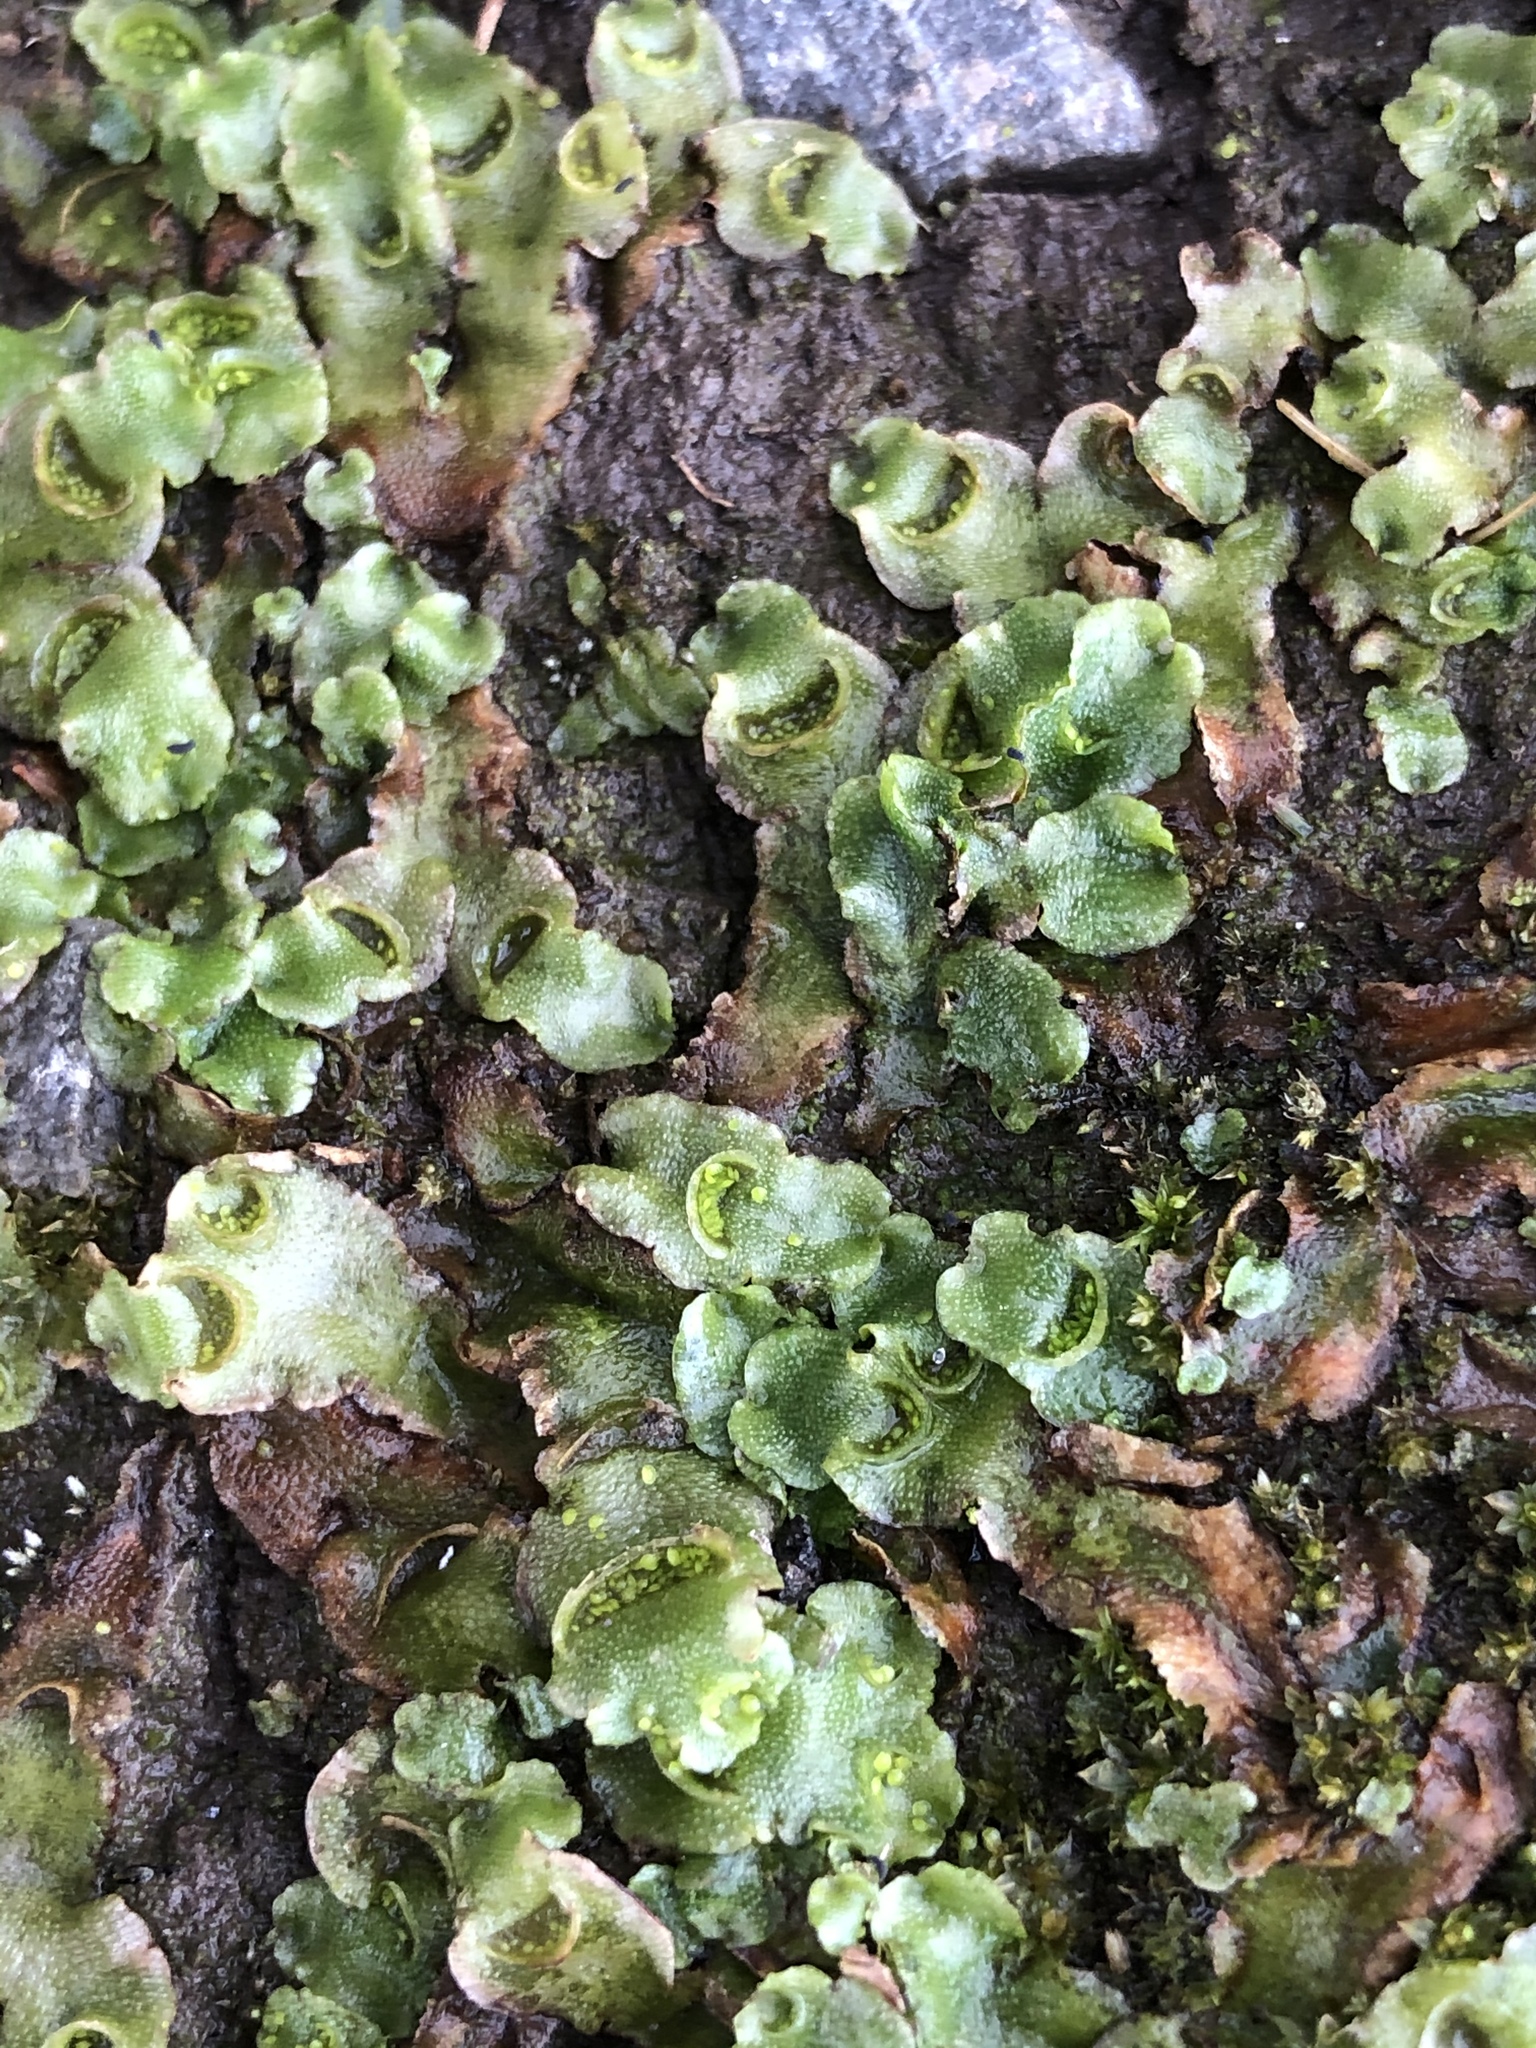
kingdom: Plantae
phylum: Marchantiophyta
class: Marchantiopsida
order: Lunulariales
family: Lunulariaceae
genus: Lunularia
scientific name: Lunularia cruciata
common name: Crescent-cup liverwort
